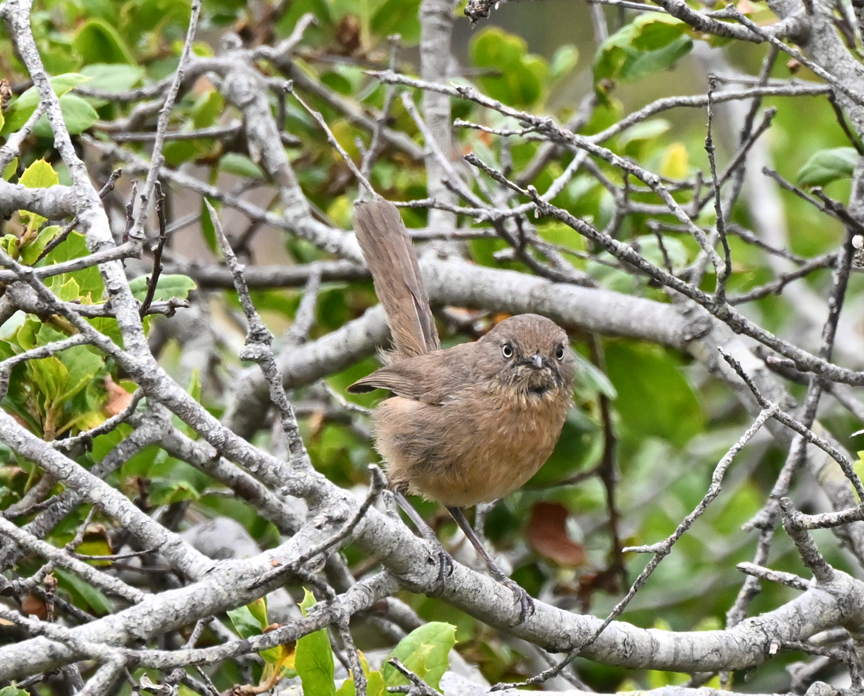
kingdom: Animalia
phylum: Chordata
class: Aves
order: Passeriformes
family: Sylviidae
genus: Chamaea
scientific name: Chamaea fasciata
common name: Wrentit
